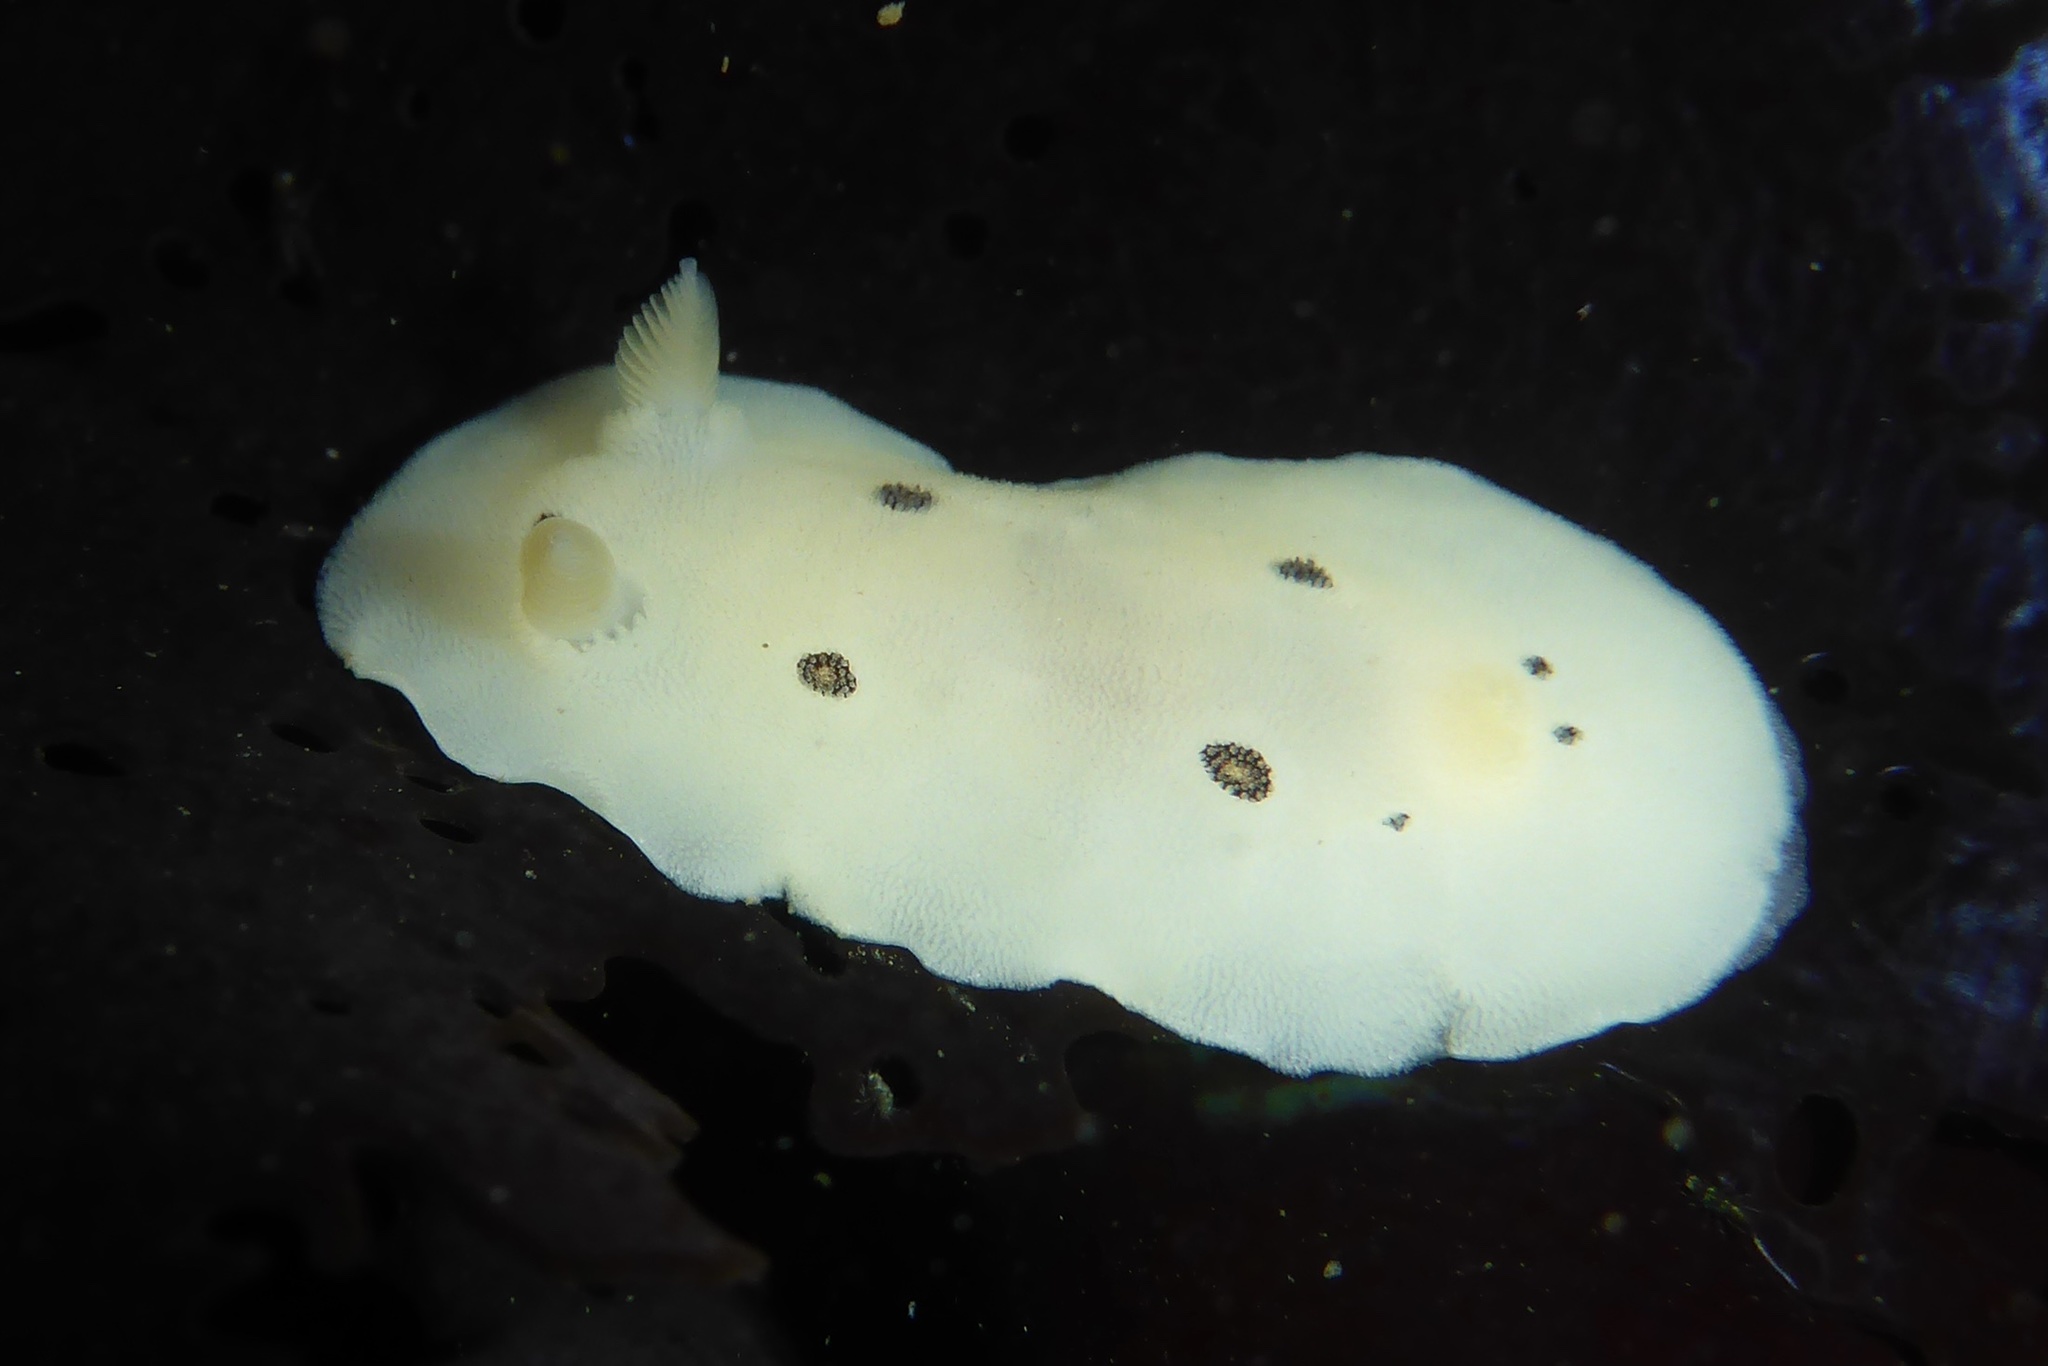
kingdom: Animalia
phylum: Mollusca
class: Gastropoda
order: Nudibranchia
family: Discodorididae
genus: Diaulula
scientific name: Diaulula sandiegensis
